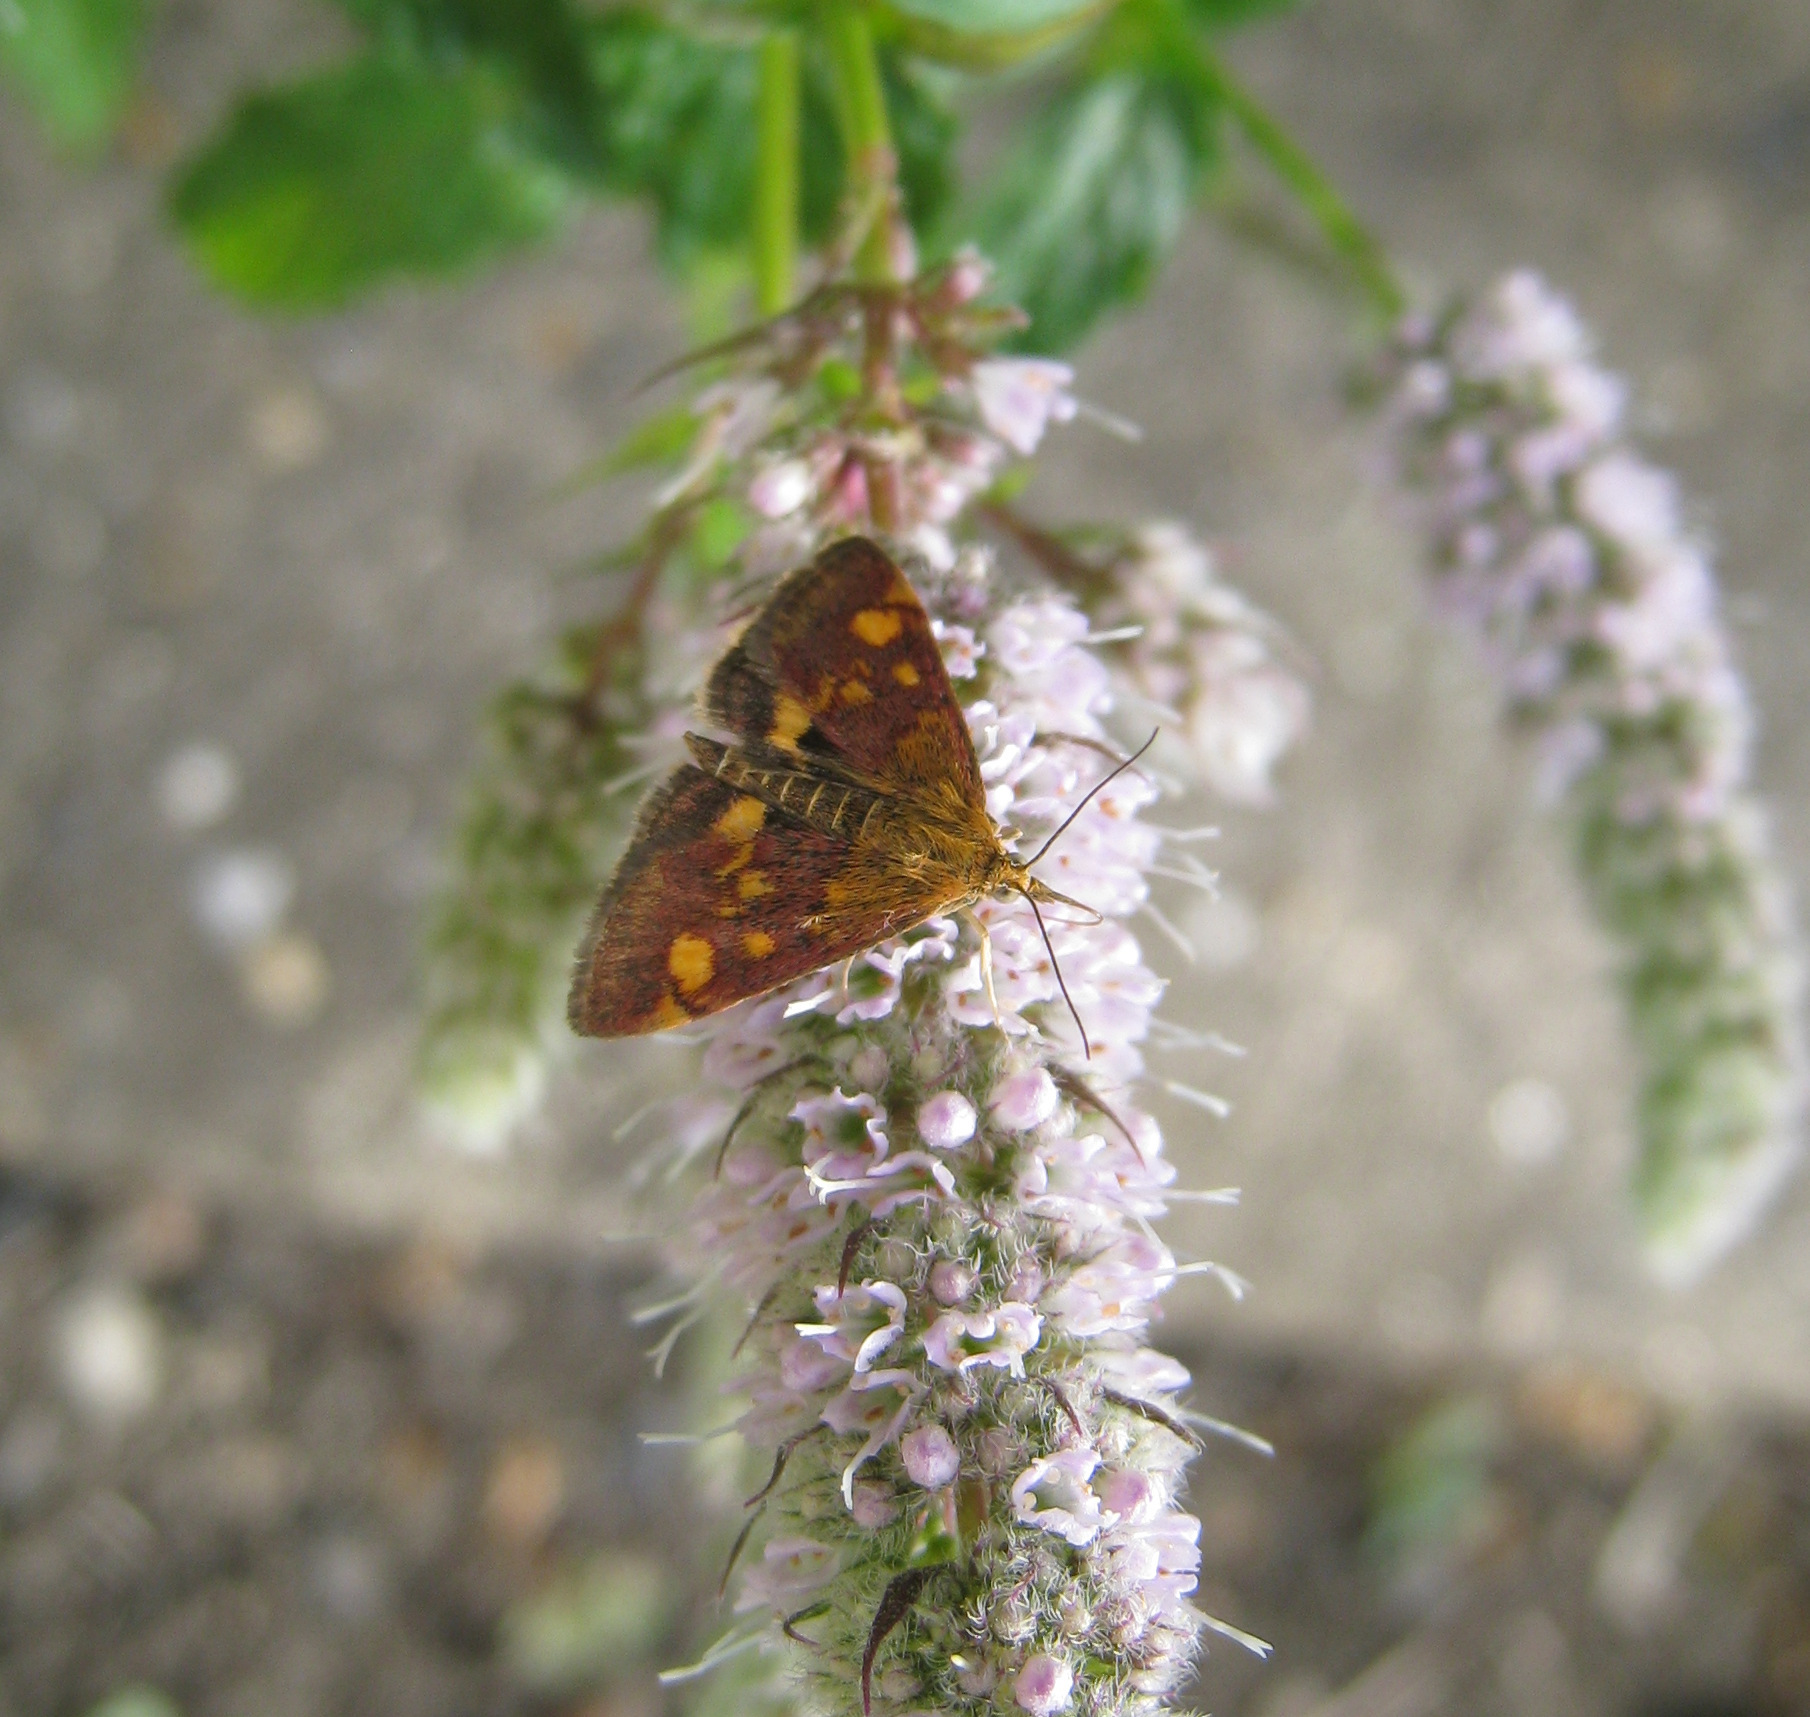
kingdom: Animalia
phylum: Arthropoda
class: Insecta
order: Lepidoptera
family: Crambidae
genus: Pyrausta
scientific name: Pyrausta aurata
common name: Small purple & gold
